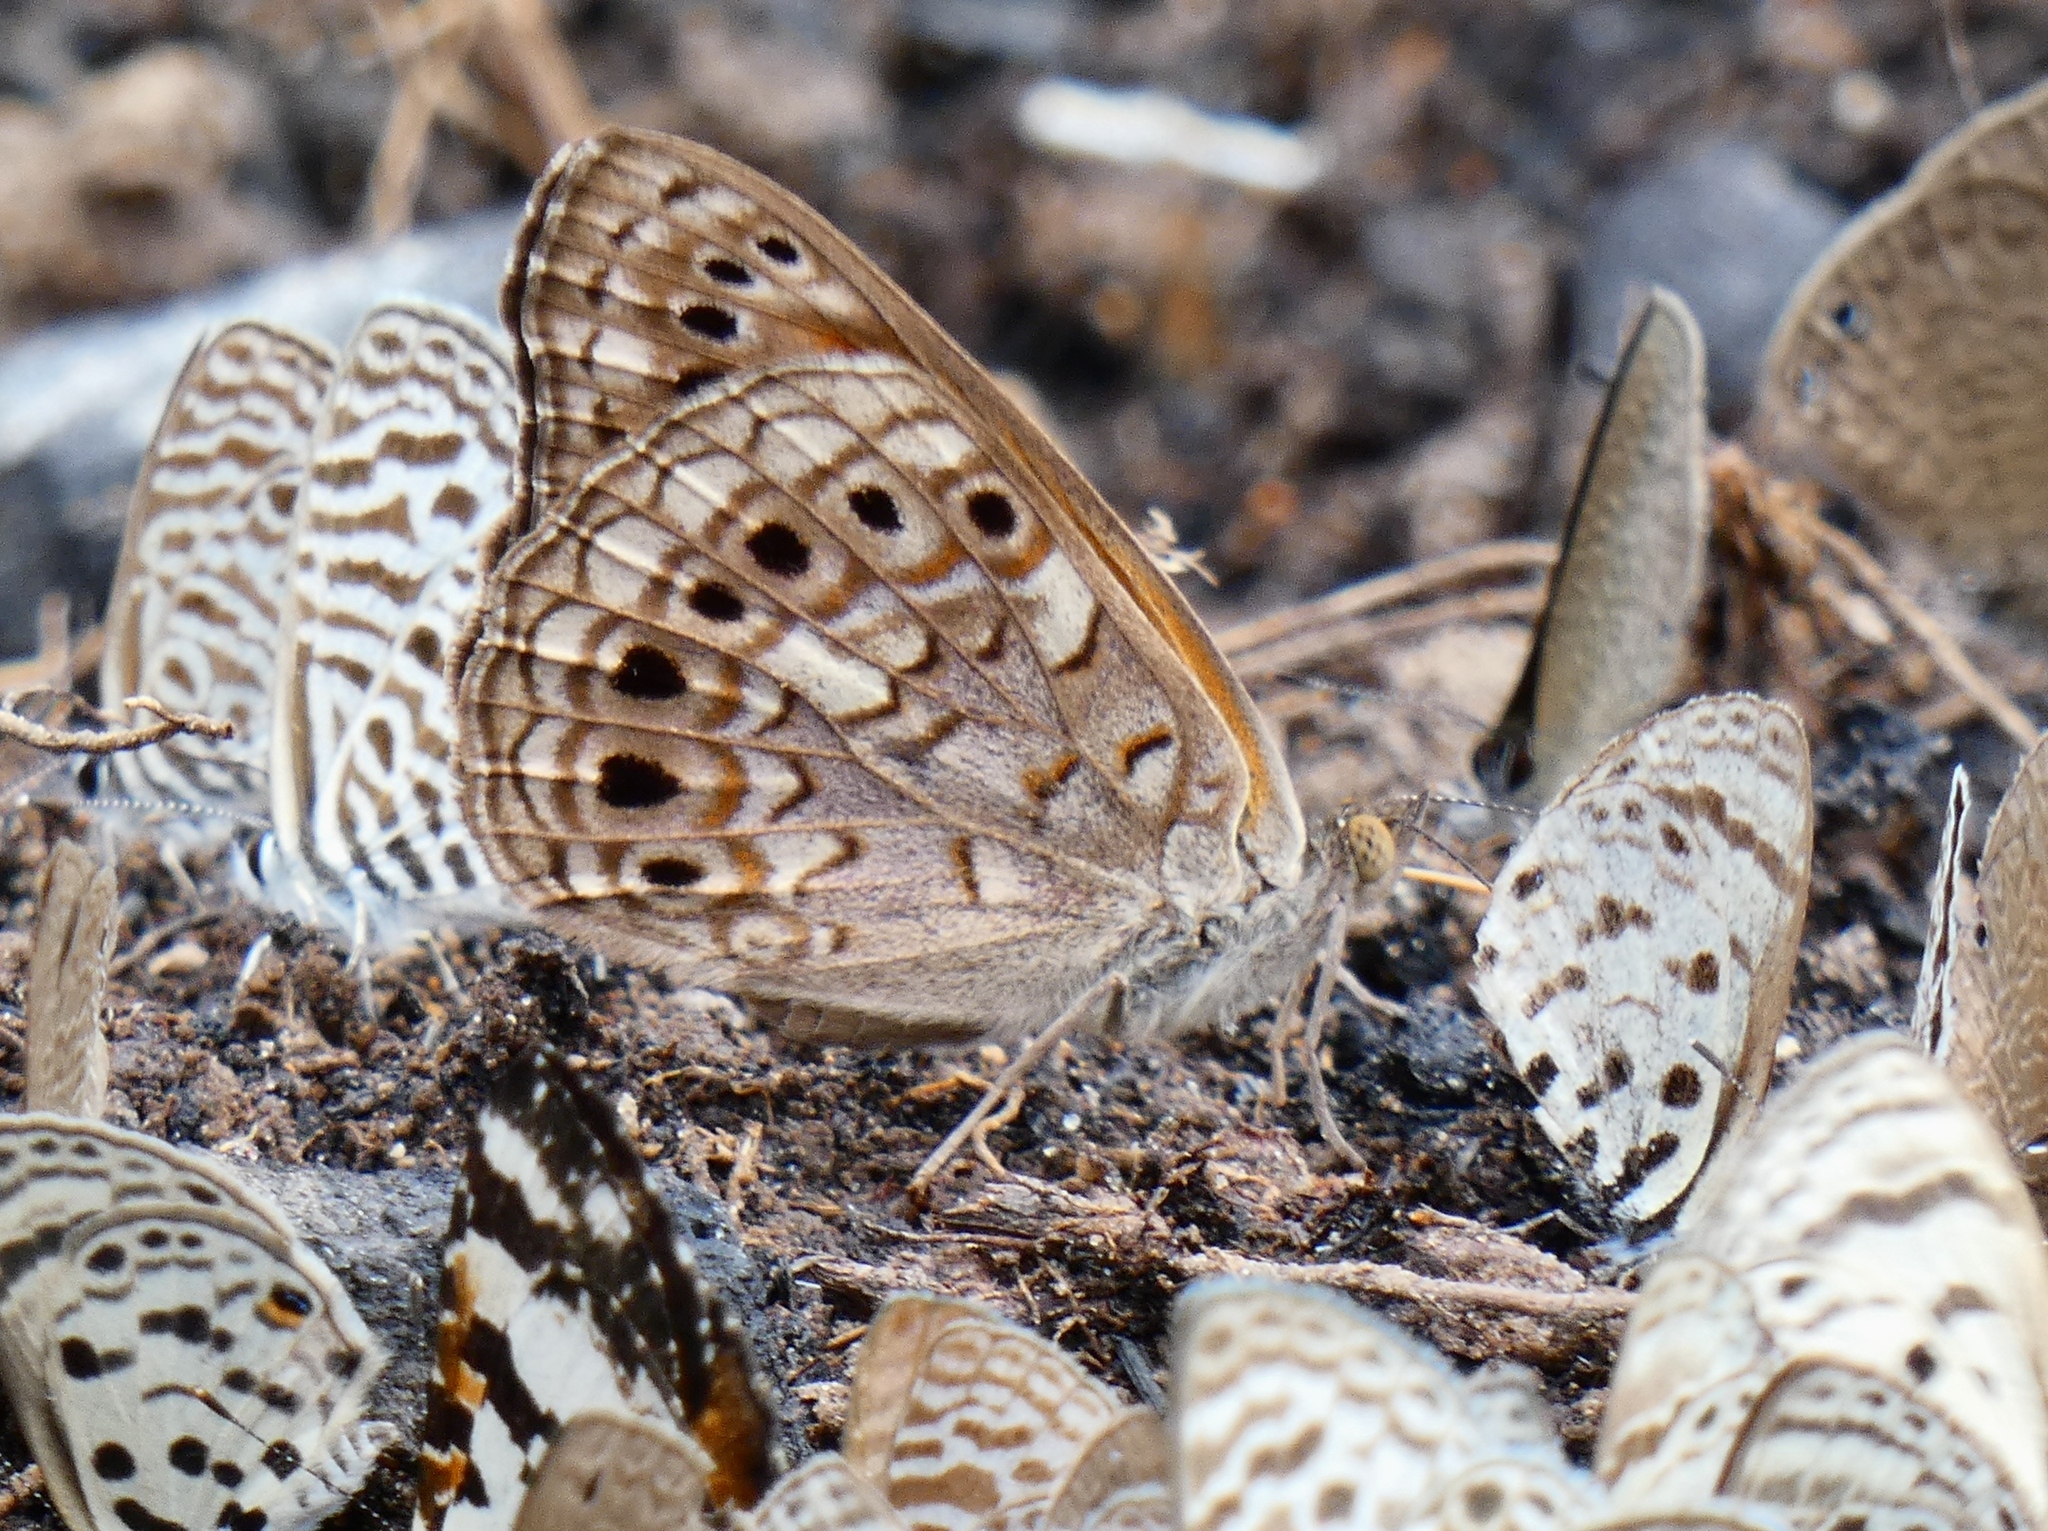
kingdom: Animalia
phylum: Arthropoda
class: Insecta
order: Lepidoptera
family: Nymphalidae
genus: Asterope
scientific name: Asterope boisduvali
